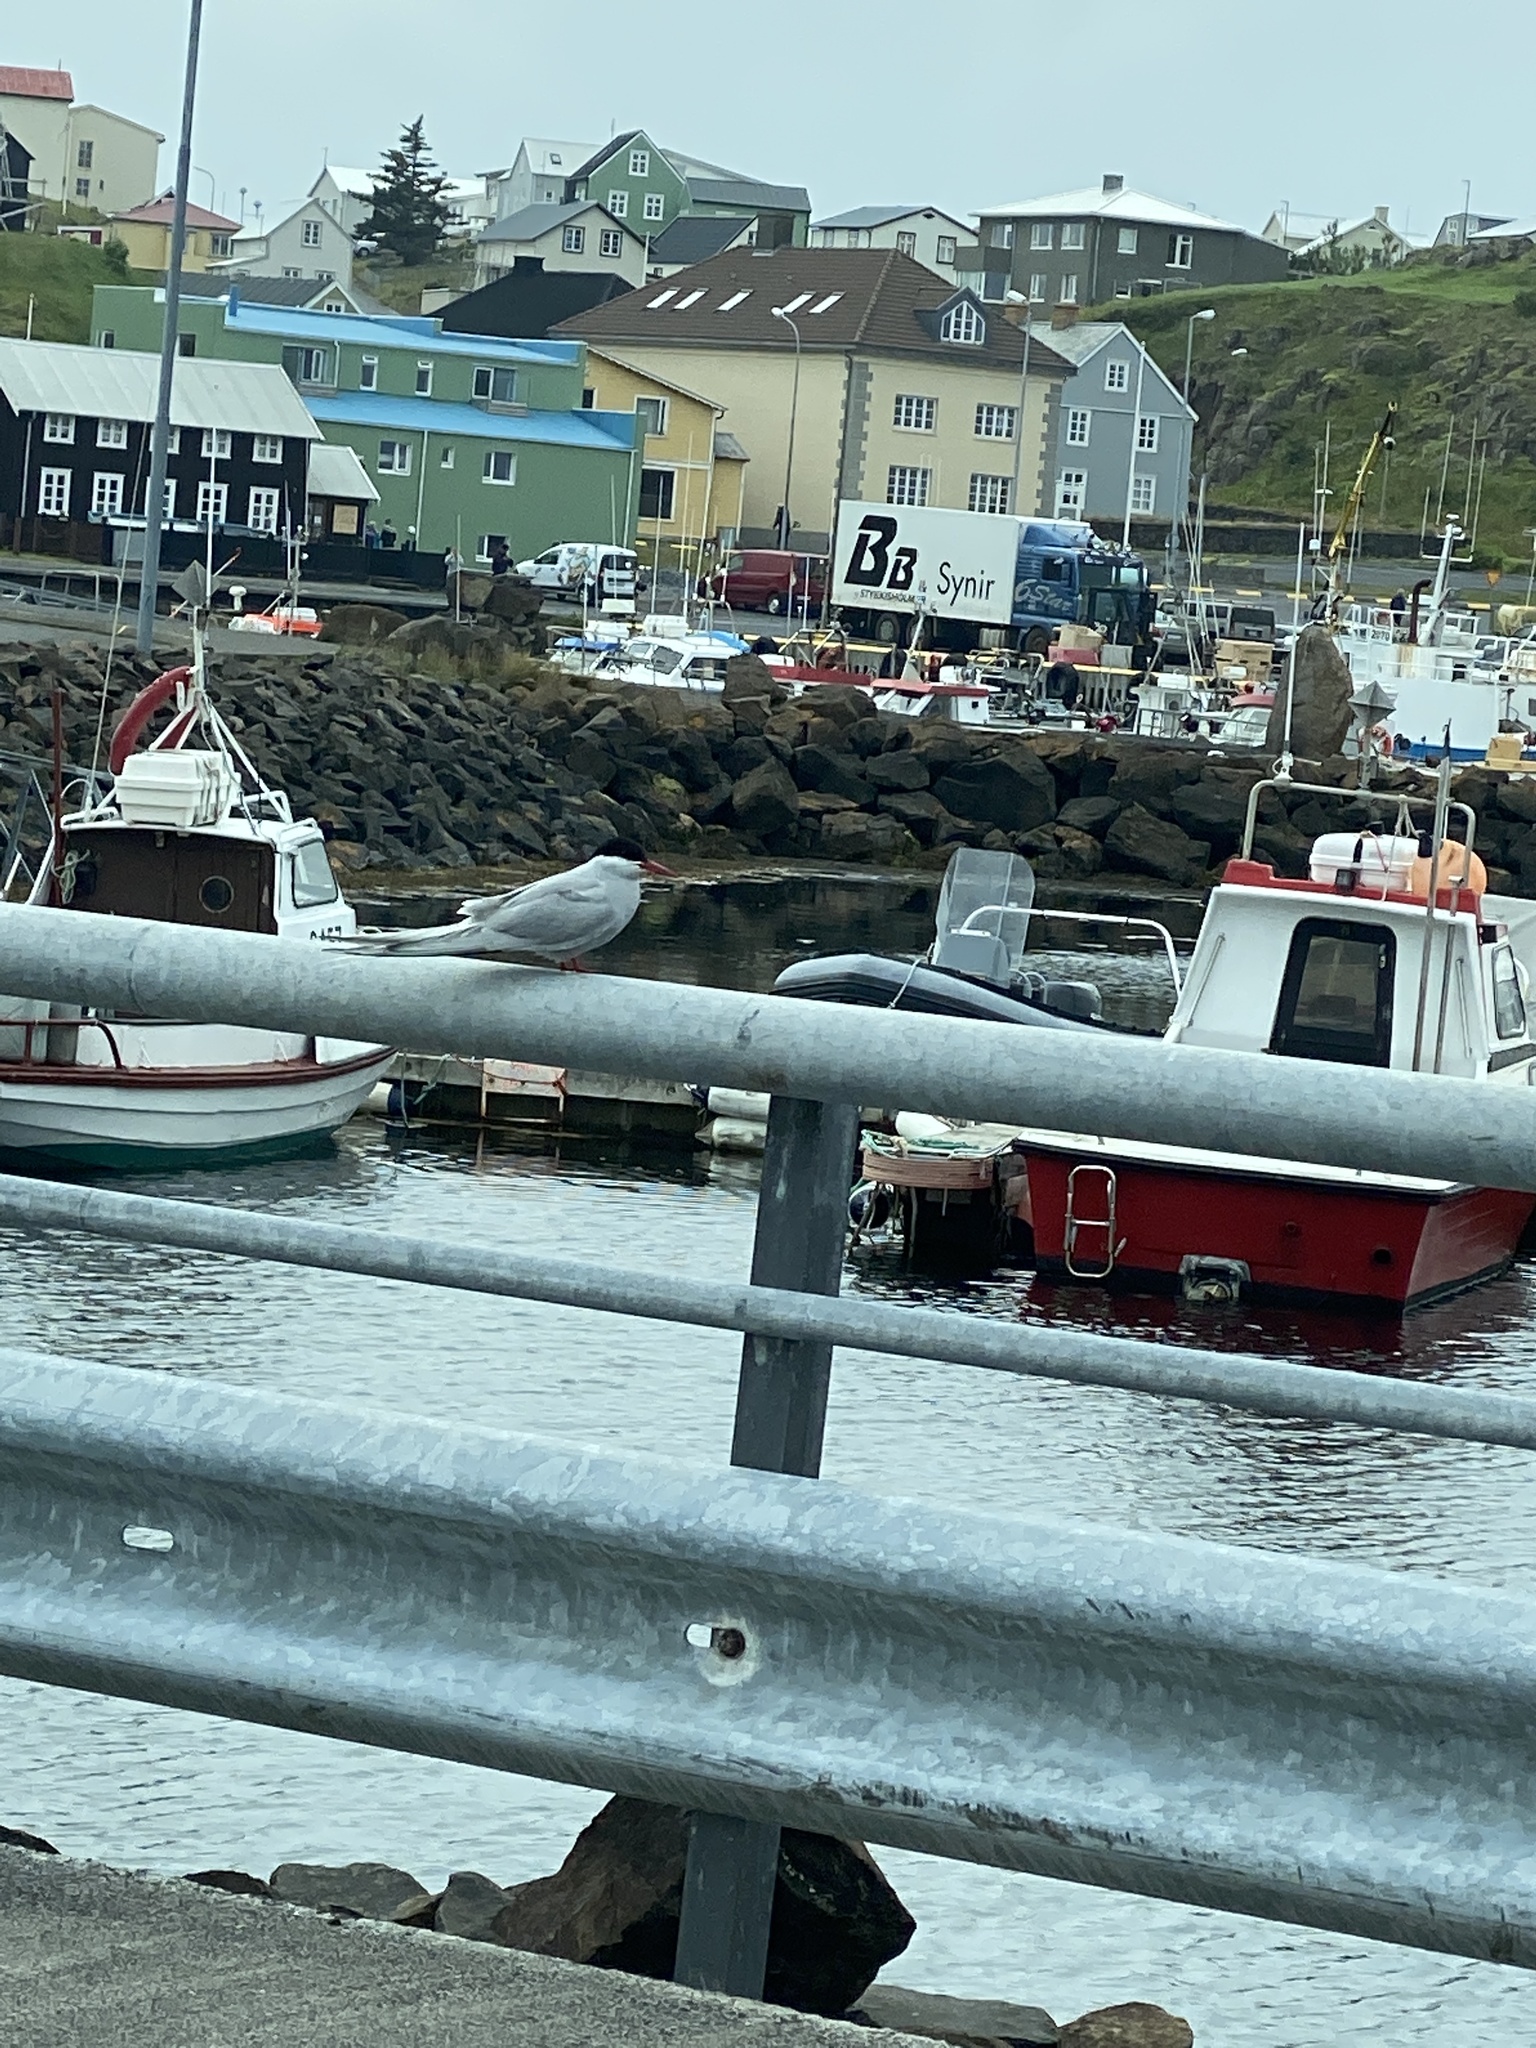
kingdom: Animalia
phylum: Chordata
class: Aves
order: Charadriiformes
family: Laridae
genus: Sterna
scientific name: Sterna paradisaea
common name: Arctic tern
